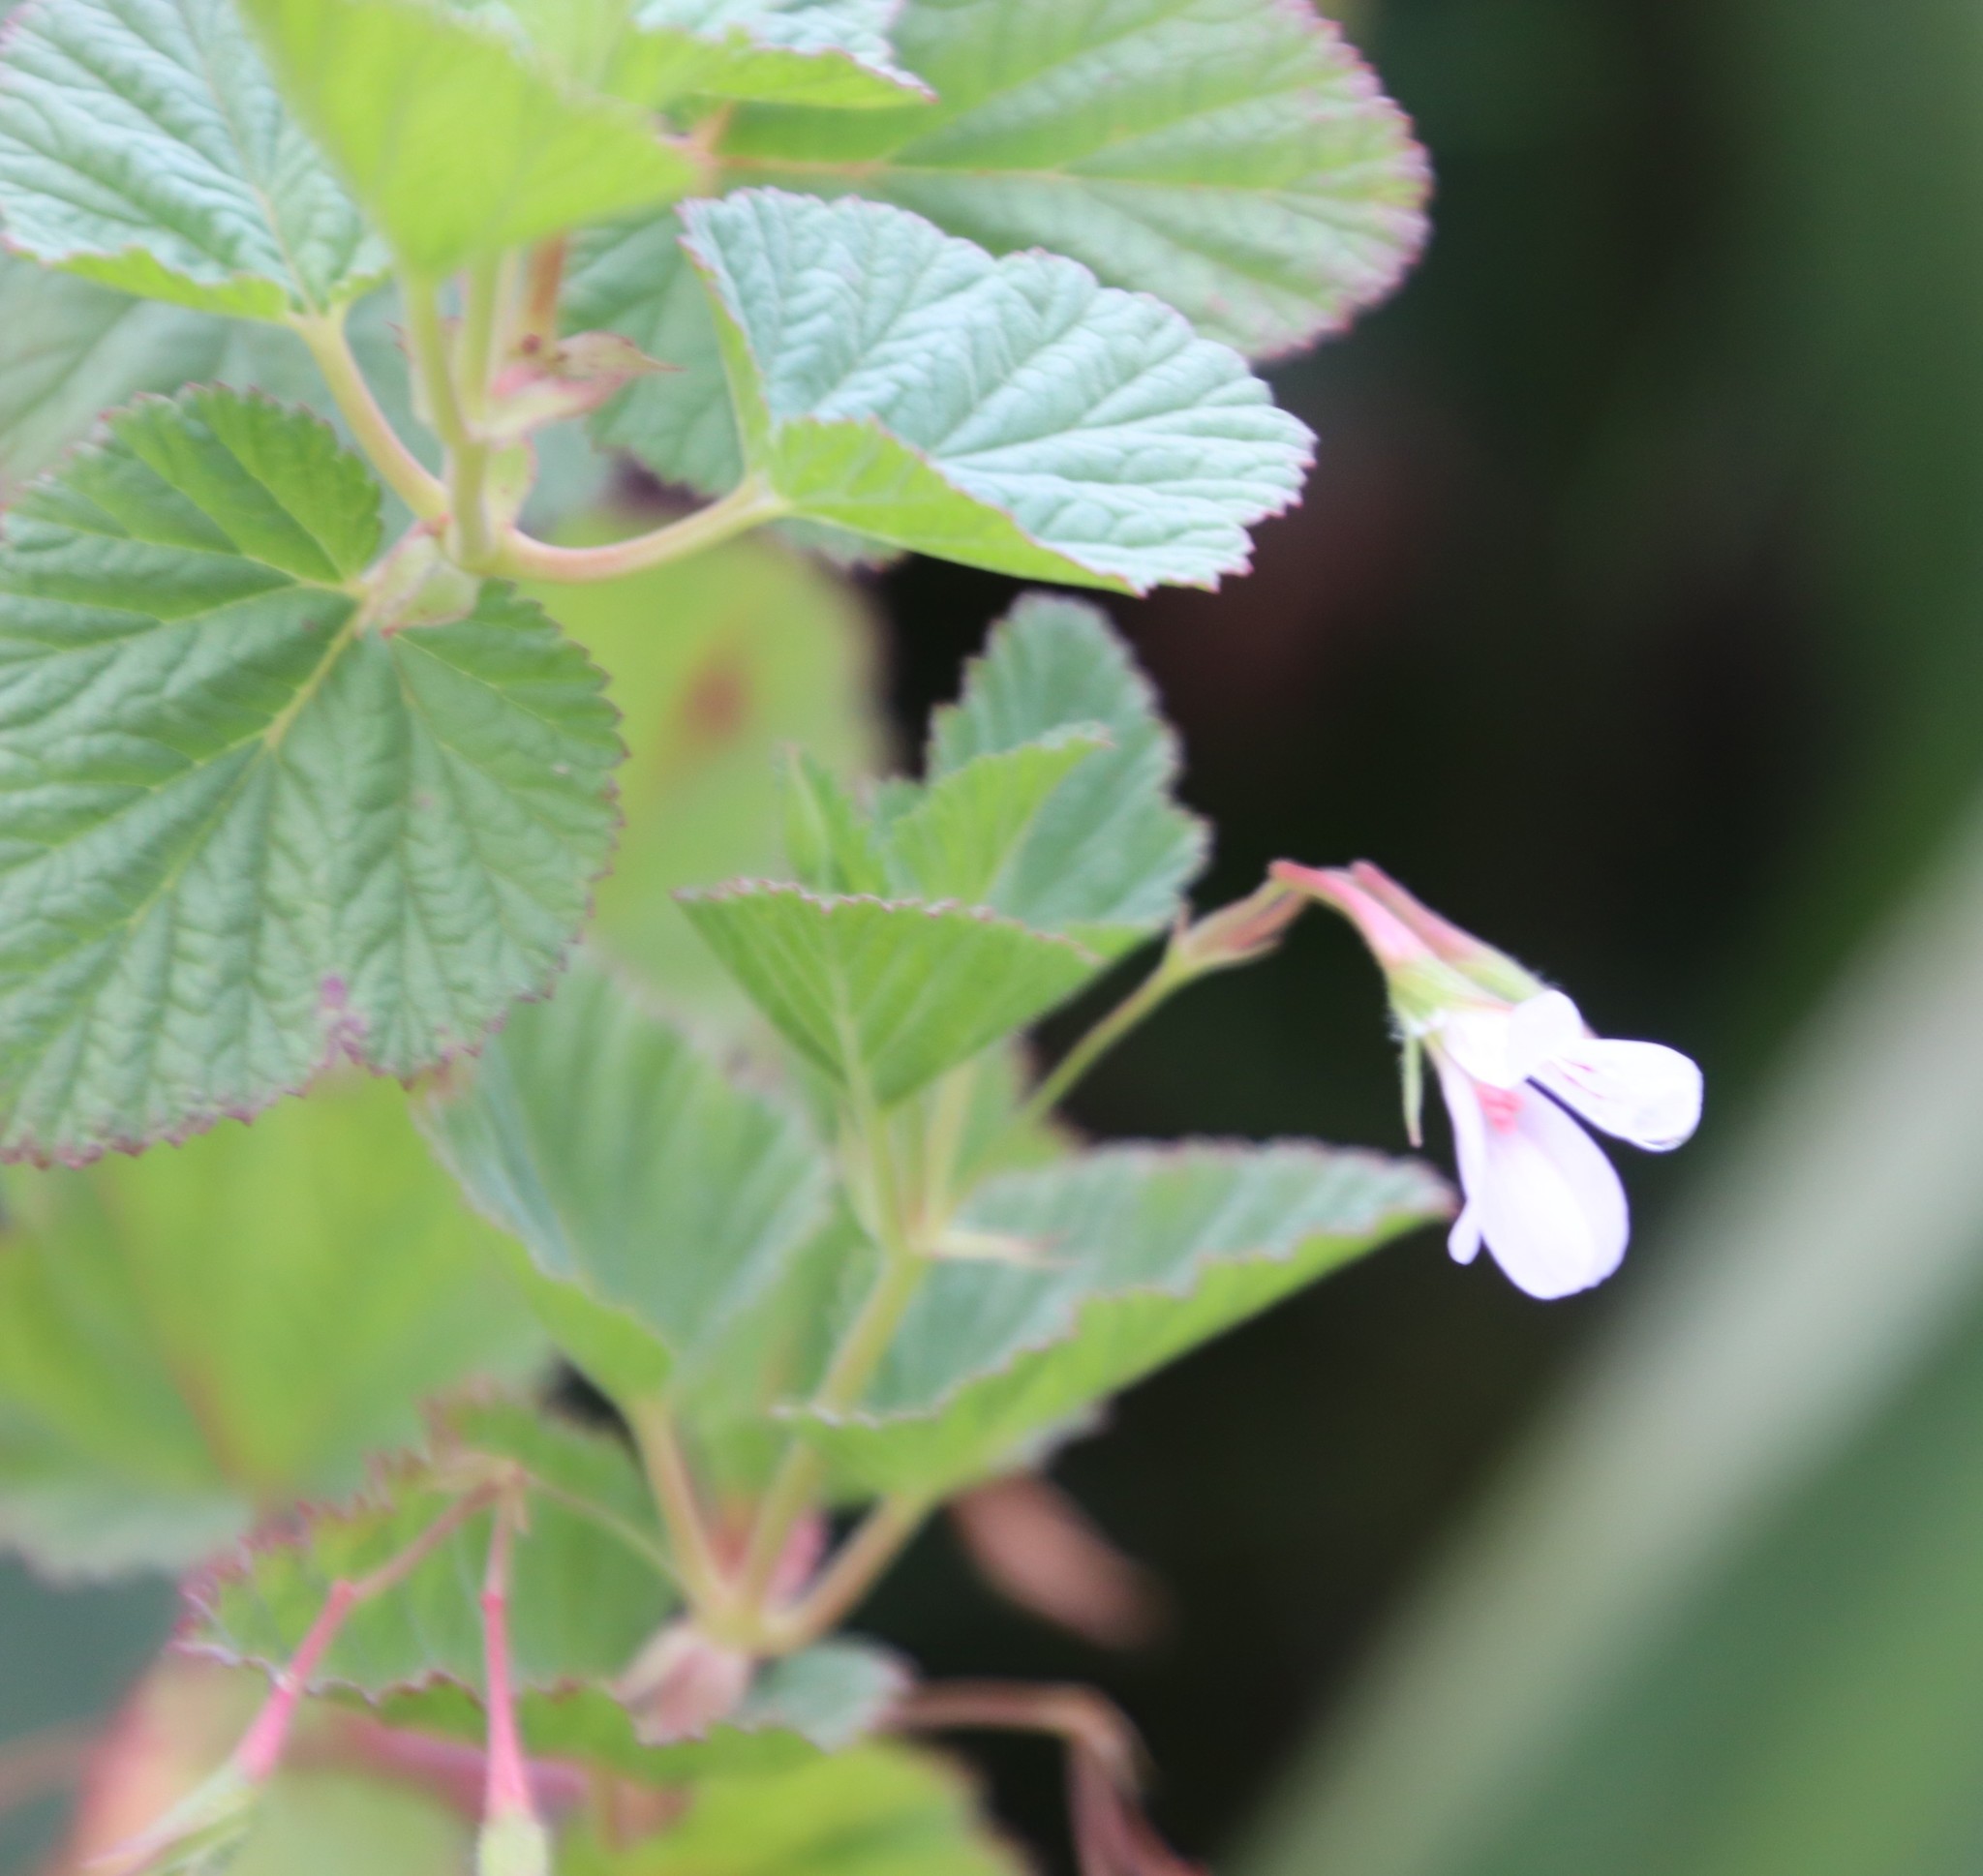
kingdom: Plantae
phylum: Tracheophyta
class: Magnoliopsida
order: Geraniales
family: Geraniaceae
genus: Pelargonium
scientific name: Pelargonium dispar
